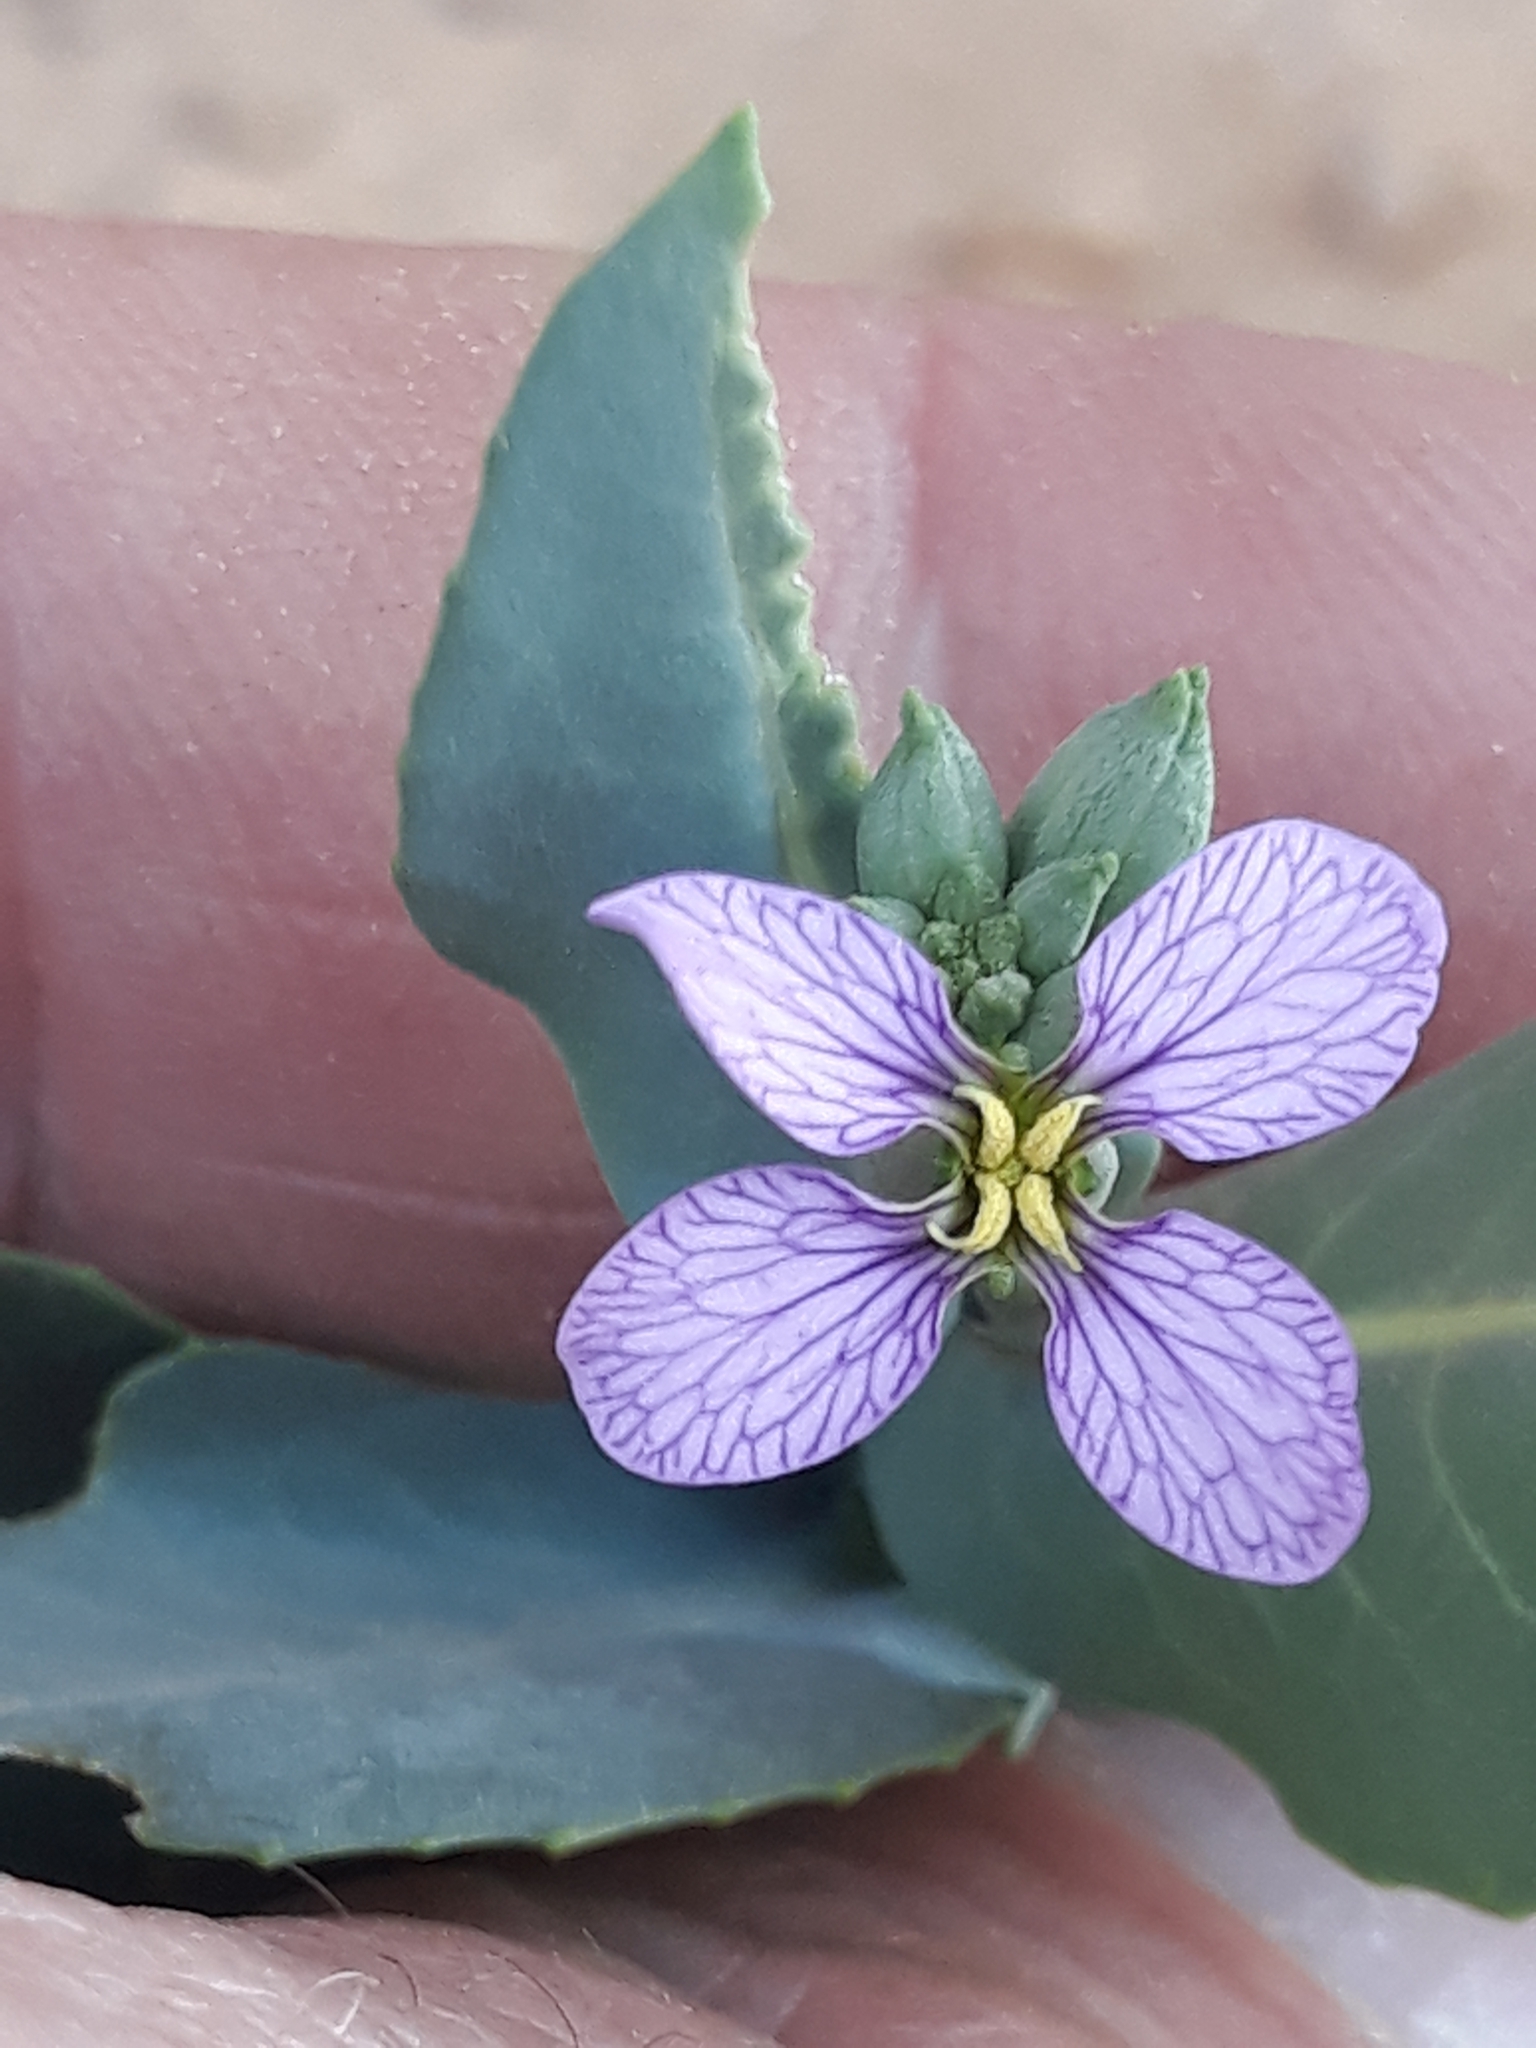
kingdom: Plantae
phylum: Tracheophyta
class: Magnoliopsida
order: Brassicales
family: Brassicaceae
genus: Schouwia
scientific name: Schouwia purpurea
